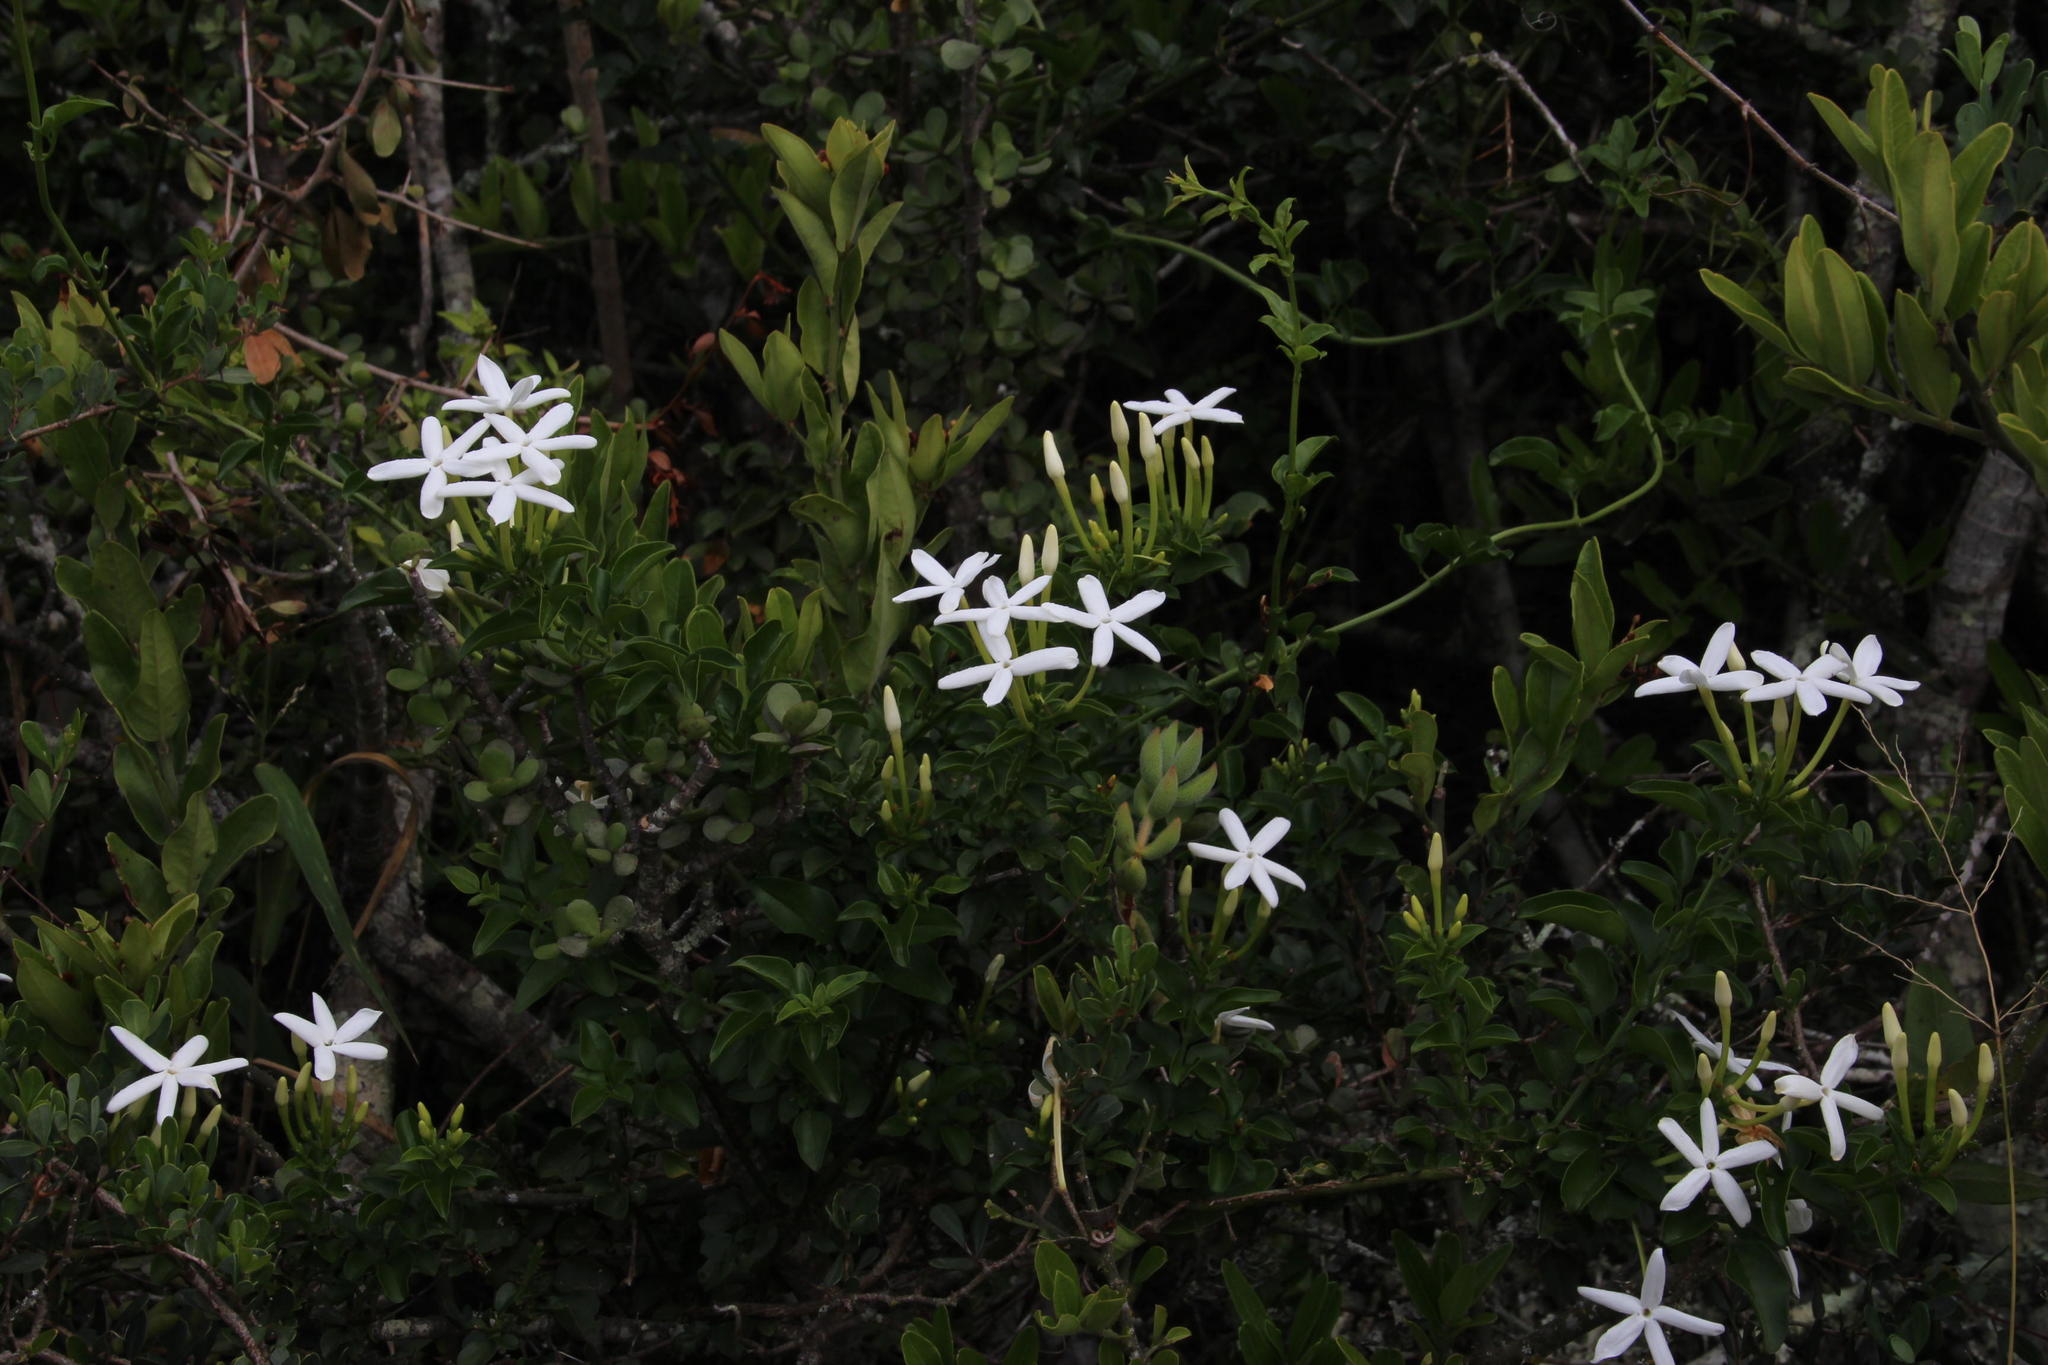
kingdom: Plantae
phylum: Tracheophyta
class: Magnoliopsida
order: Lamiales
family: Oleaceae
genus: Jasminum
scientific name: Jasminum angulare
